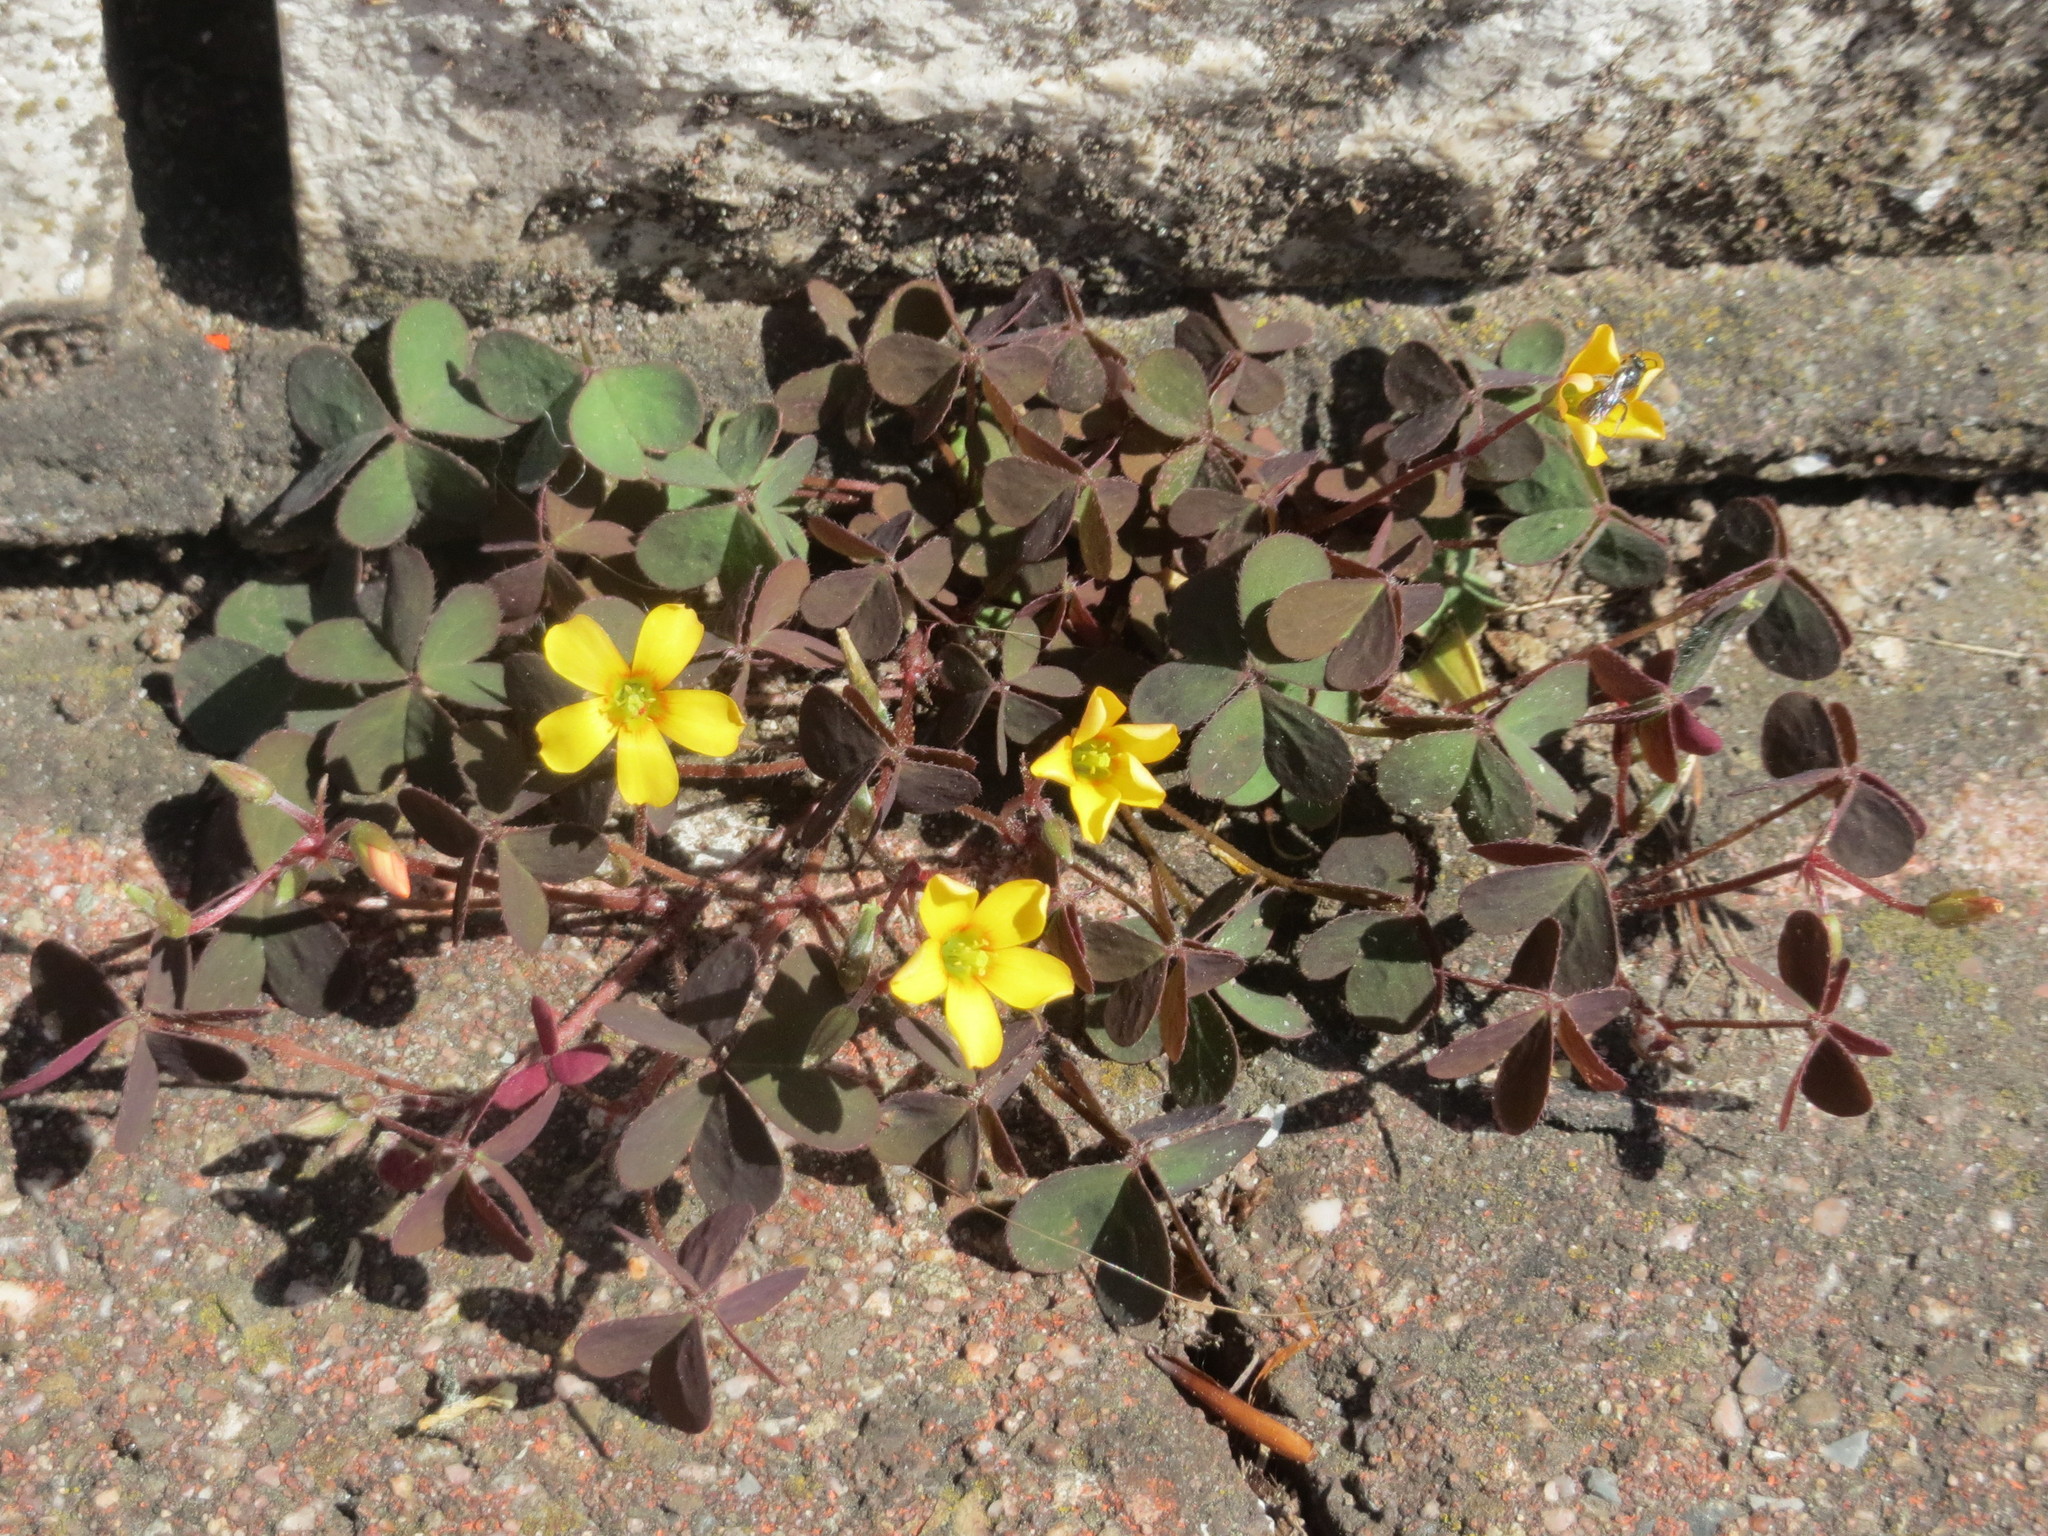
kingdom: Plantae
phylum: Tracheophyta
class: Magnoliopsida
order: Oxalidales
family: Oxalidaceae
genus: Oxalis
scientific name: Oxalis corniculata
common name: Procumbent yellow-sorrel
